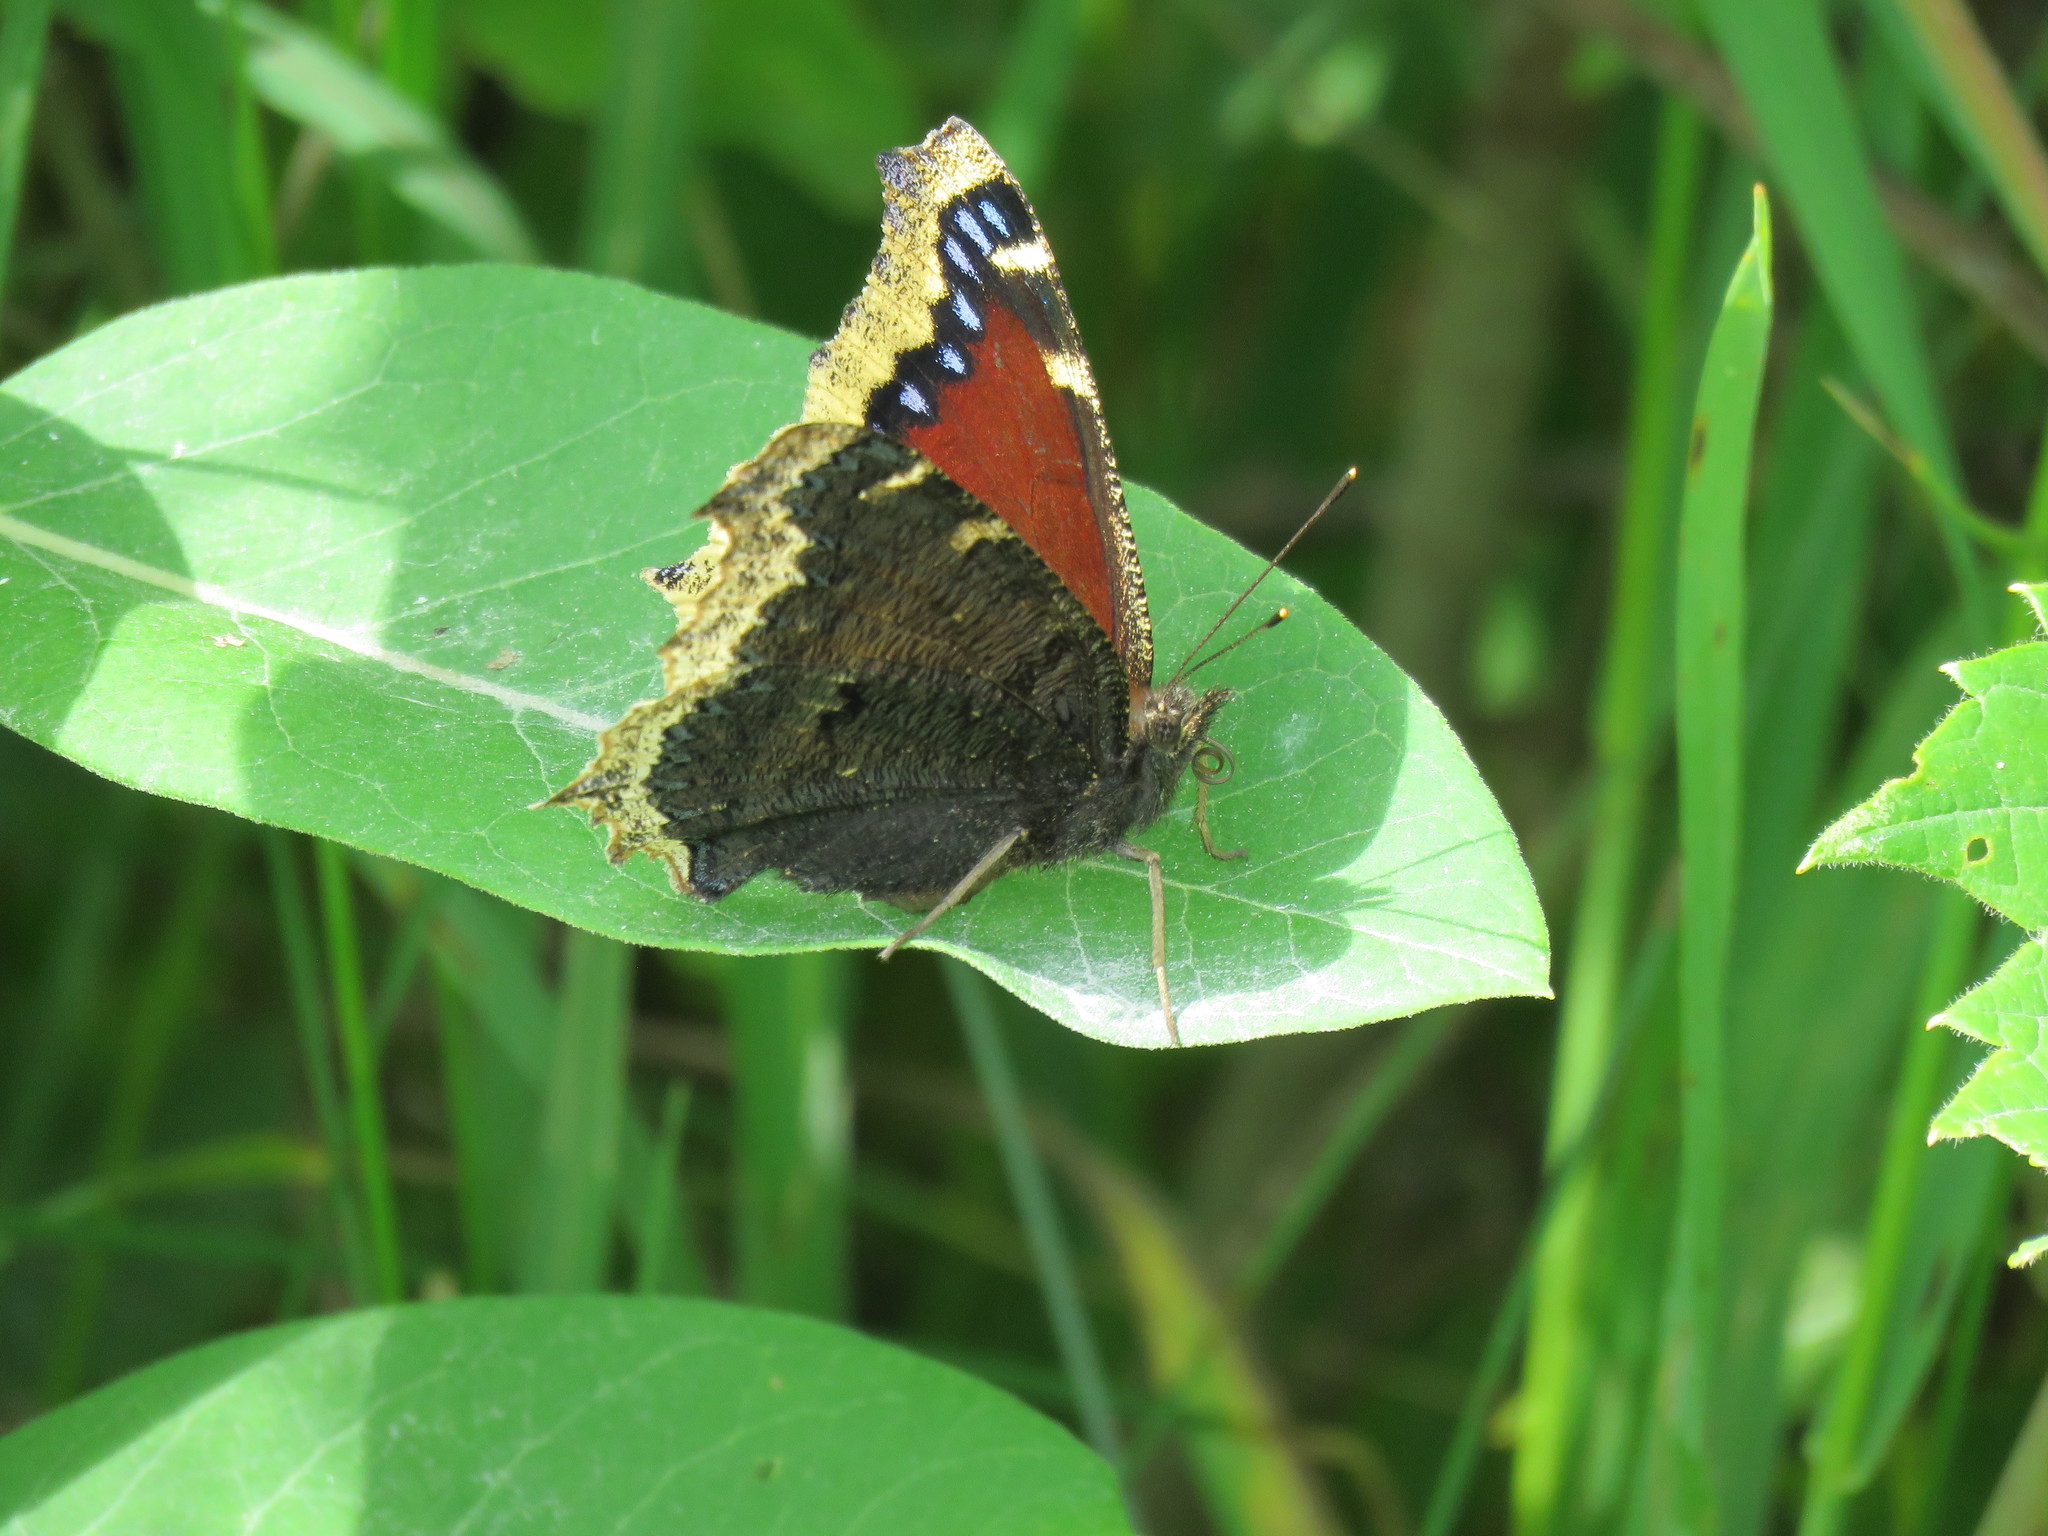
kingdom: Animalia
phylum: Arthropoda
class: Insecta
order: Lepidoptera
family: Nymphalidae
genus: Nymphalis
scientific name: Nymphalis antiopa
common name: Camberwell beauty
